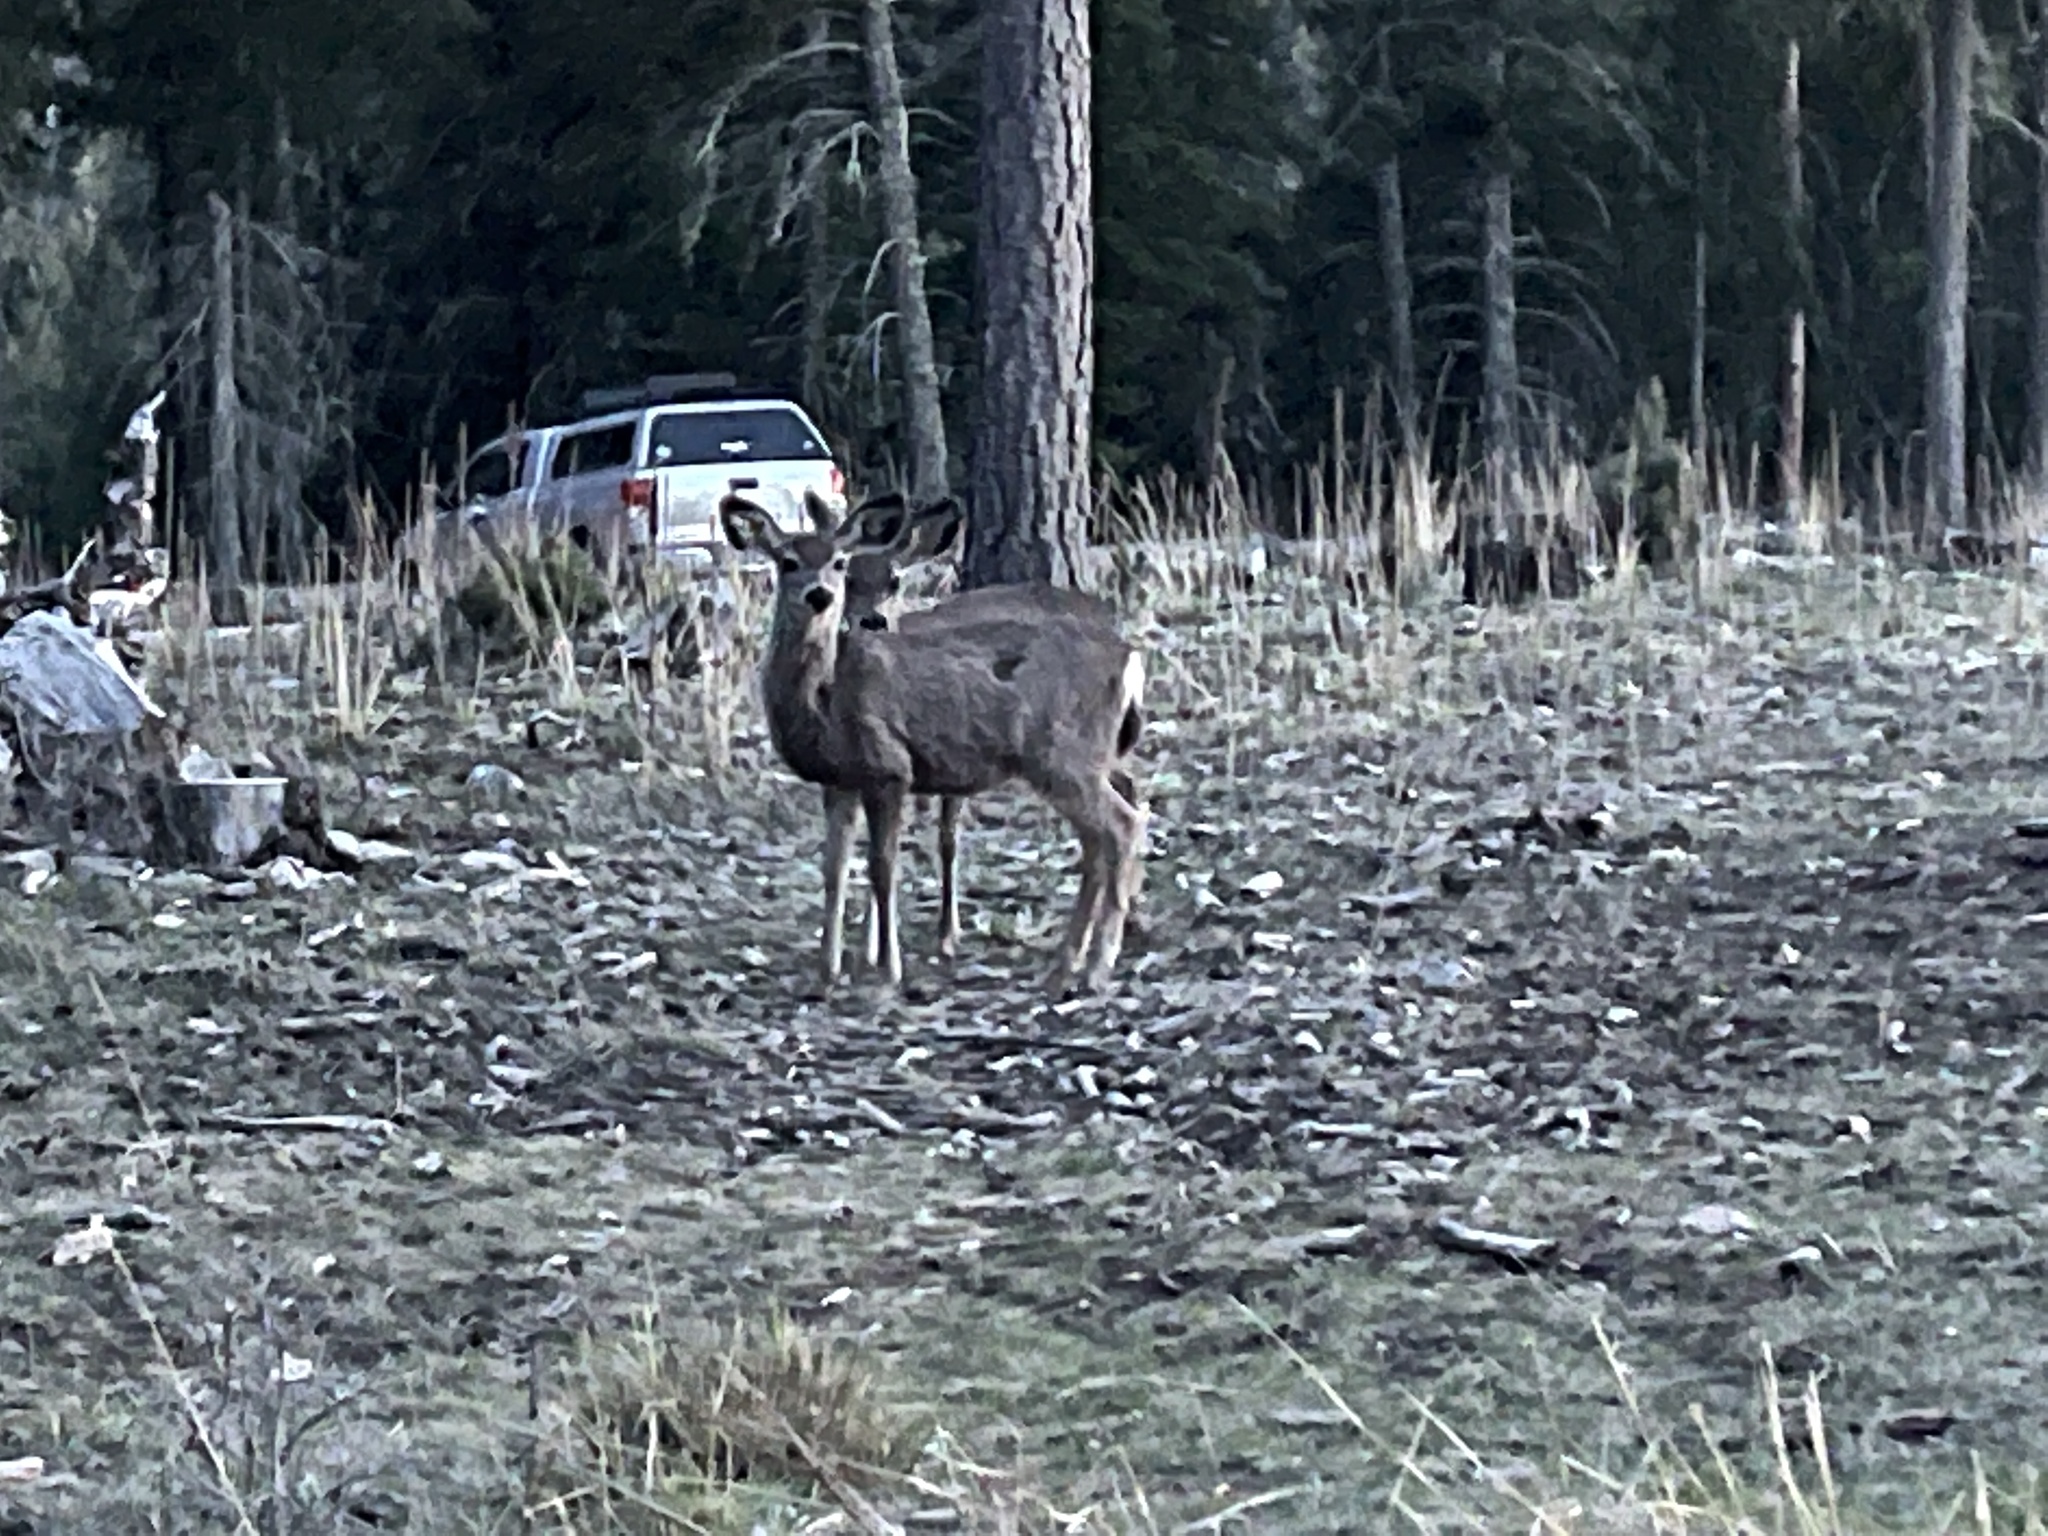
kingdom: Animalia
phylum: Chordata
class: Mammalia
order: Artiodactyla
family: Cervidae
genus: Odocoileus
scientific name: Odocoileus hemionus
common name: Mule deer
